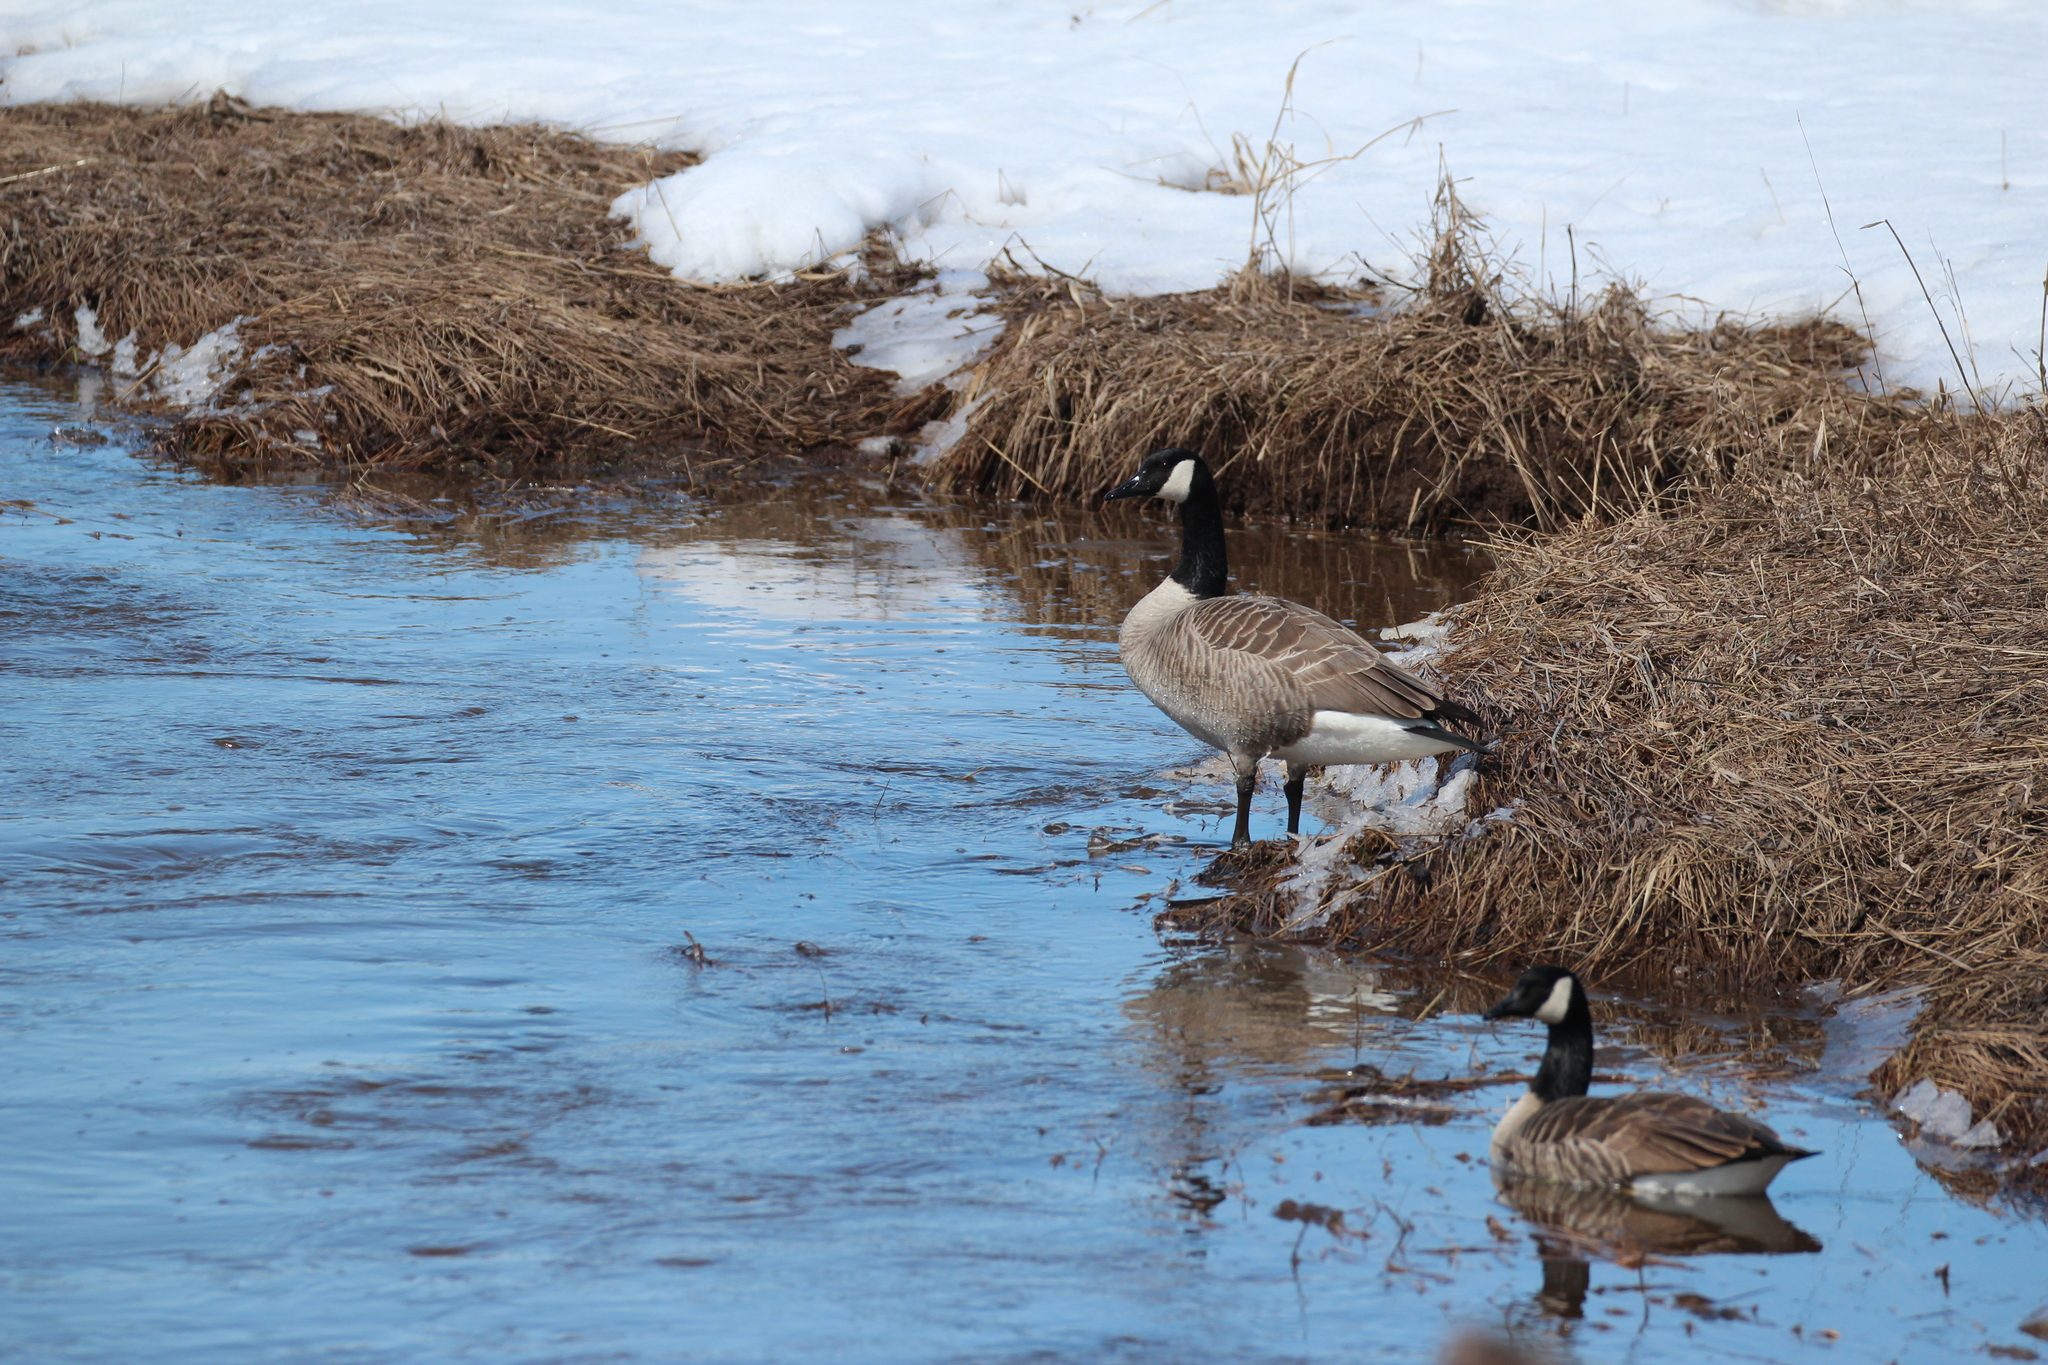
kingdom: Animalia
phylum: Chordata
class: Aves
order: Anseriformes
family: Anatidae
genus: Branta
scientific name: Branta canadensis
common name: Canada goose
